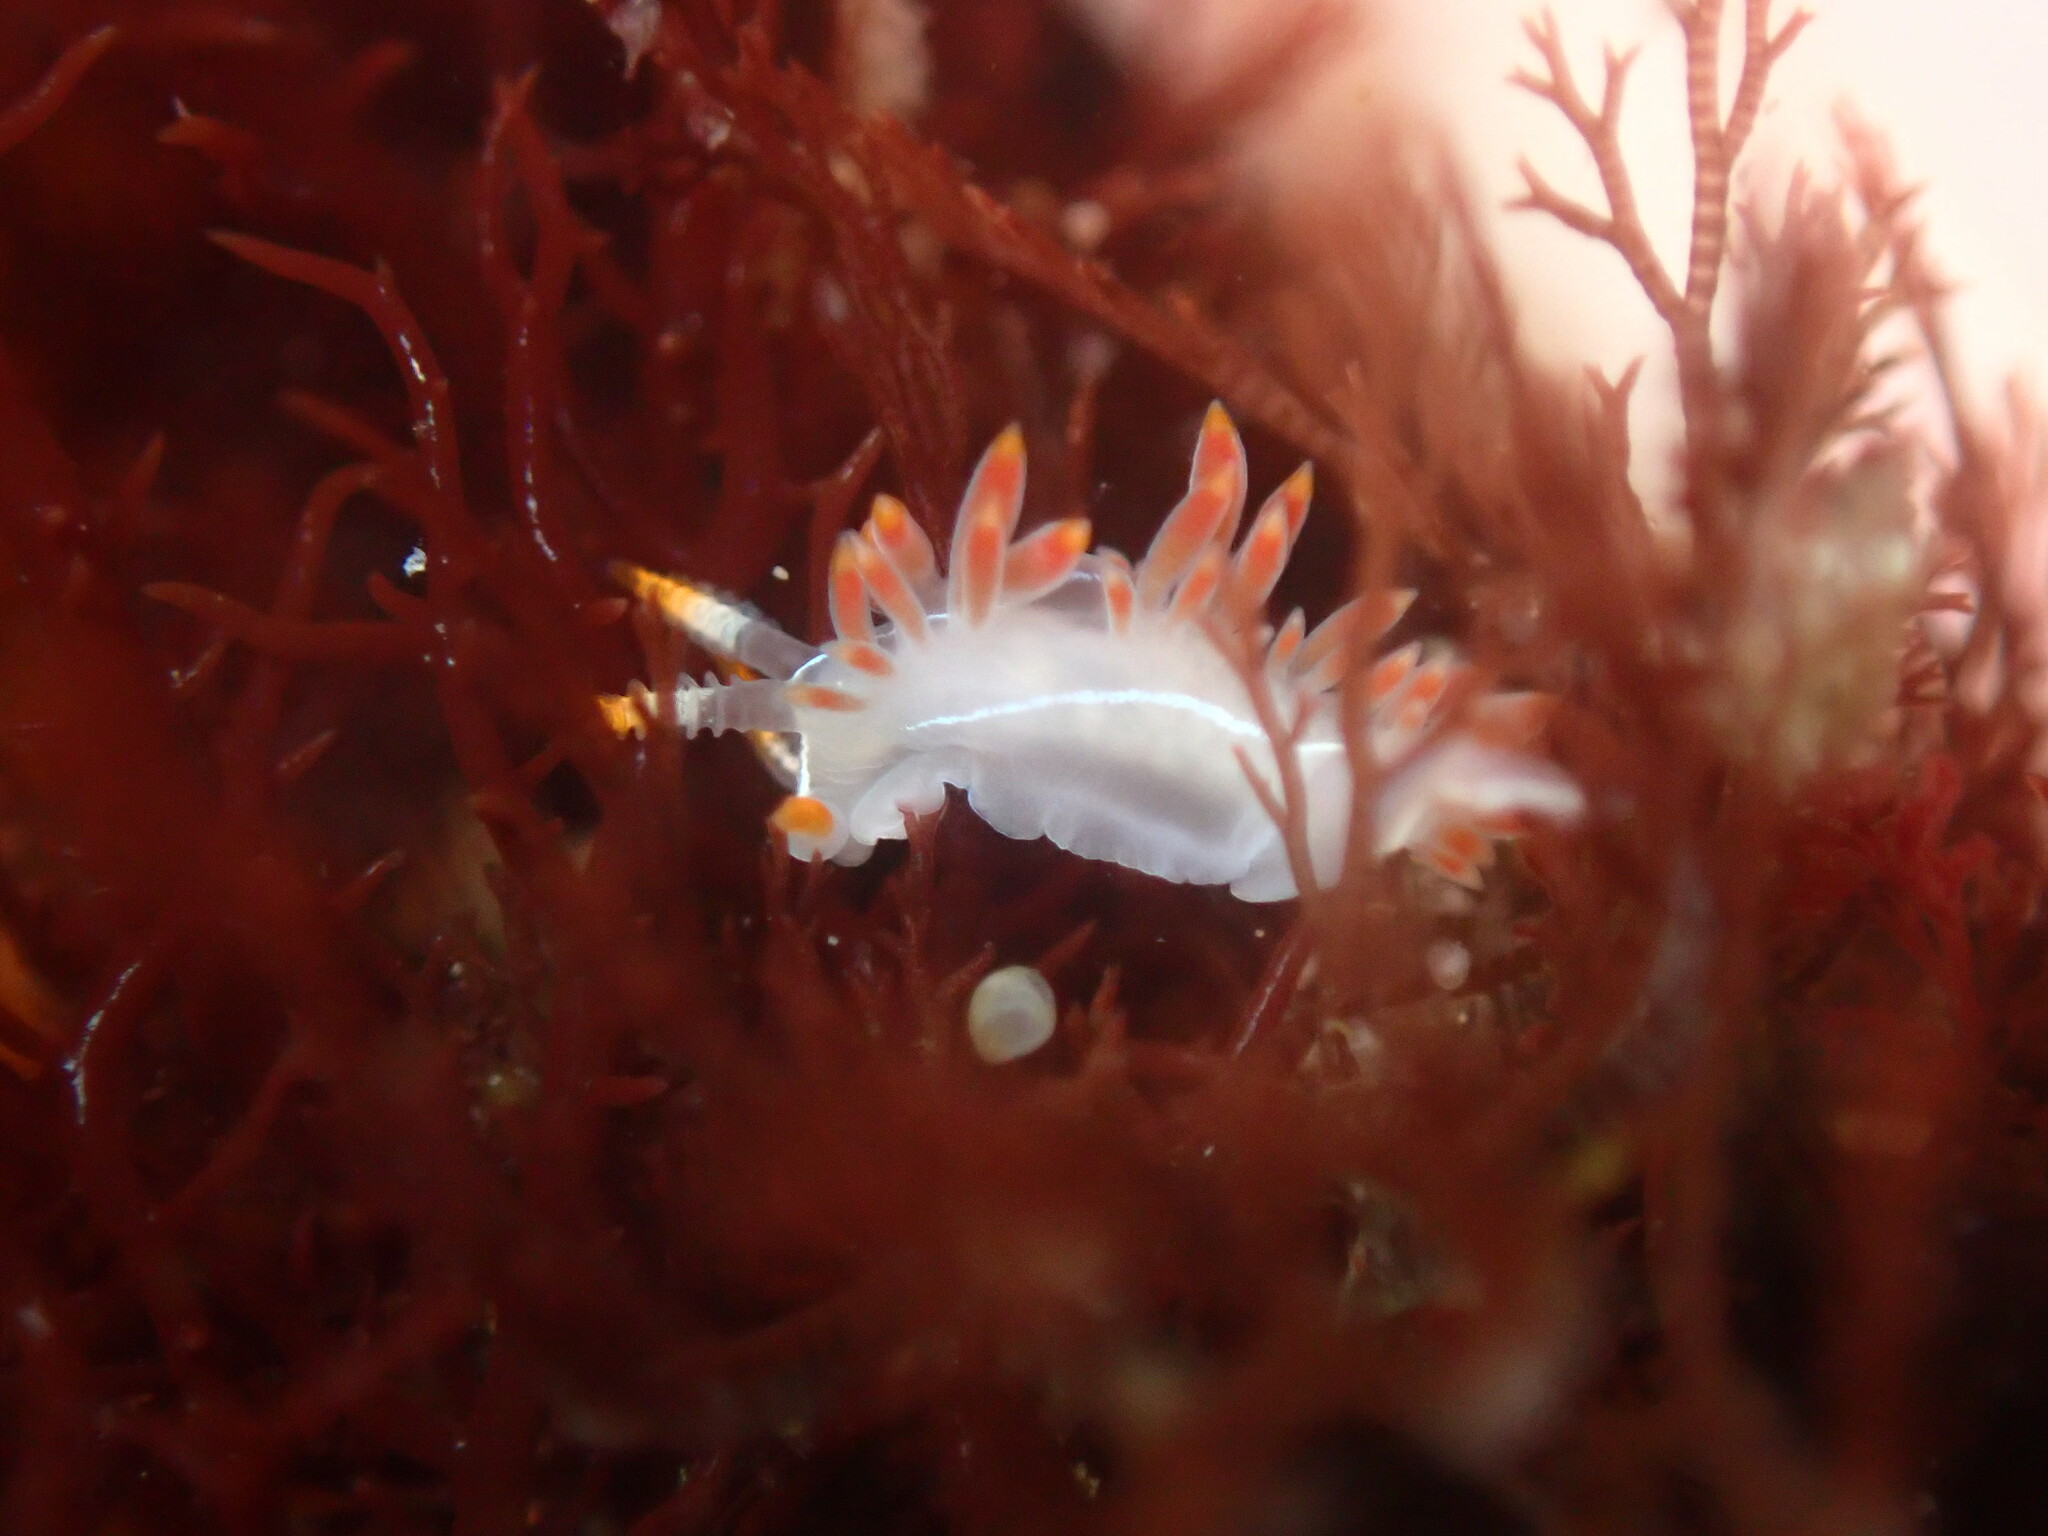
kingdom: Animalia
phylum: Mollusca
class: Gastropoda
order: Nudibranchia
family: Coryphellidae
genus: Coryphella
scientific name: Coryphella trilineata
